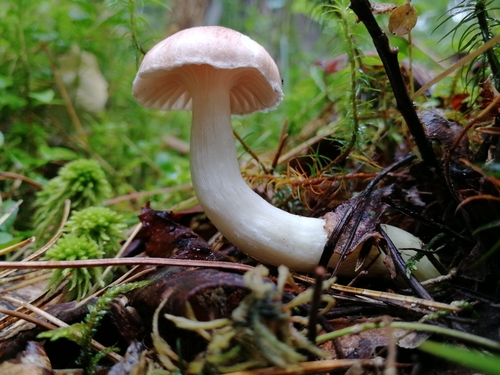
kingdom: Fungi
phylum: Basidiomycota
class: Agaricomycetes
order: Boletales
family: Gomphidiaceae
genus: Gomphidius
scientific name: Gomphidius flavipes
